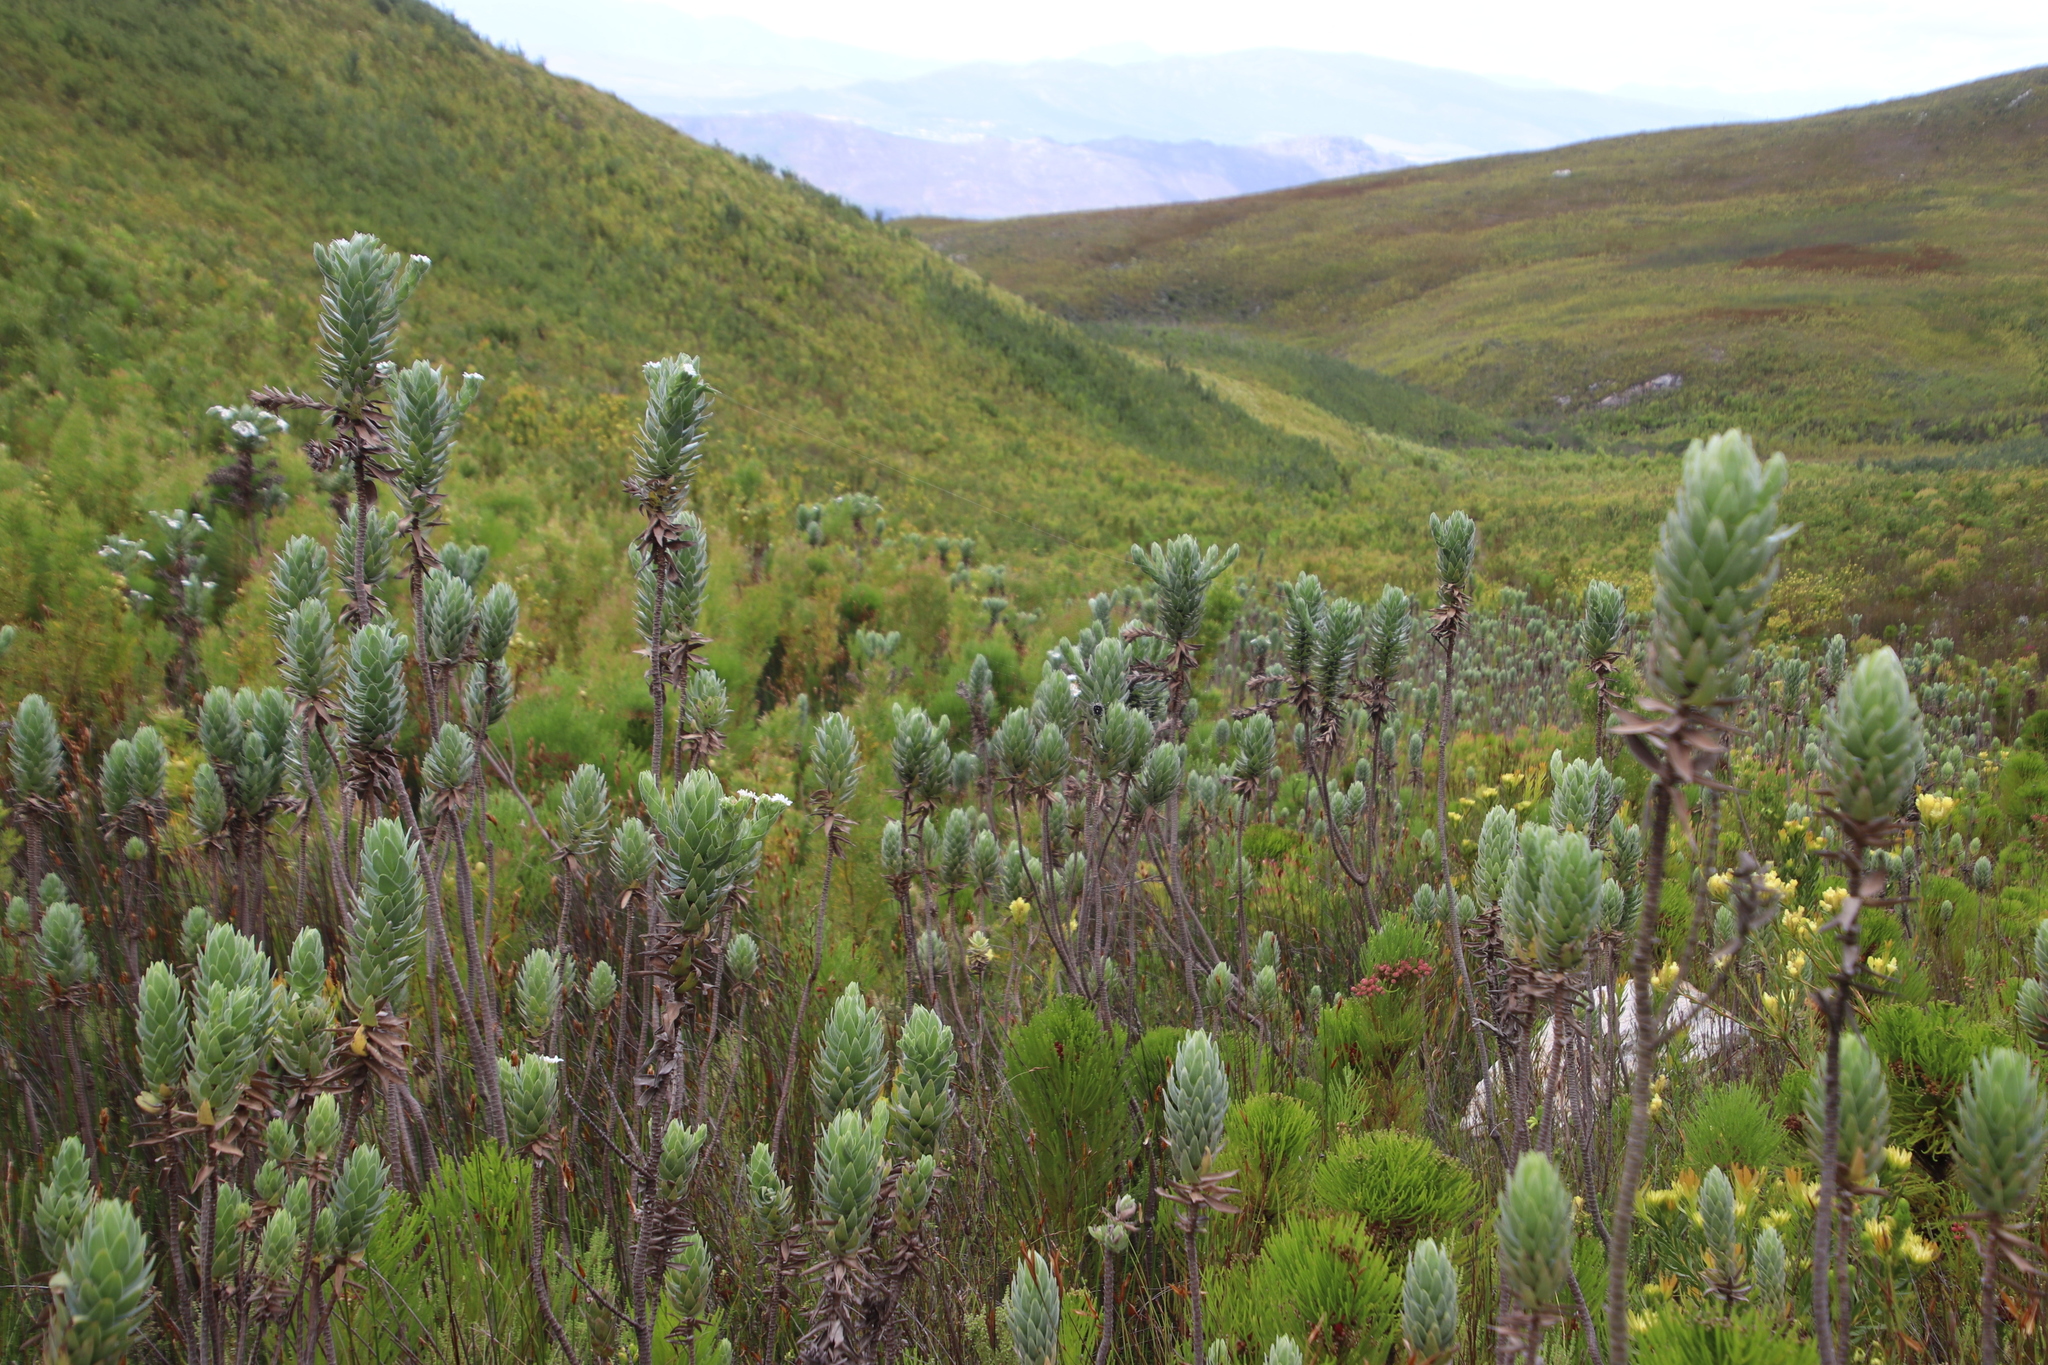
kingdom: Plantae
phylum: Tracheophyta
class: Magnoliopsida
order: Asterales
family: Asteraceae
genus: Osmitopsis
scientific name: Osmitopsis asteriscoides
